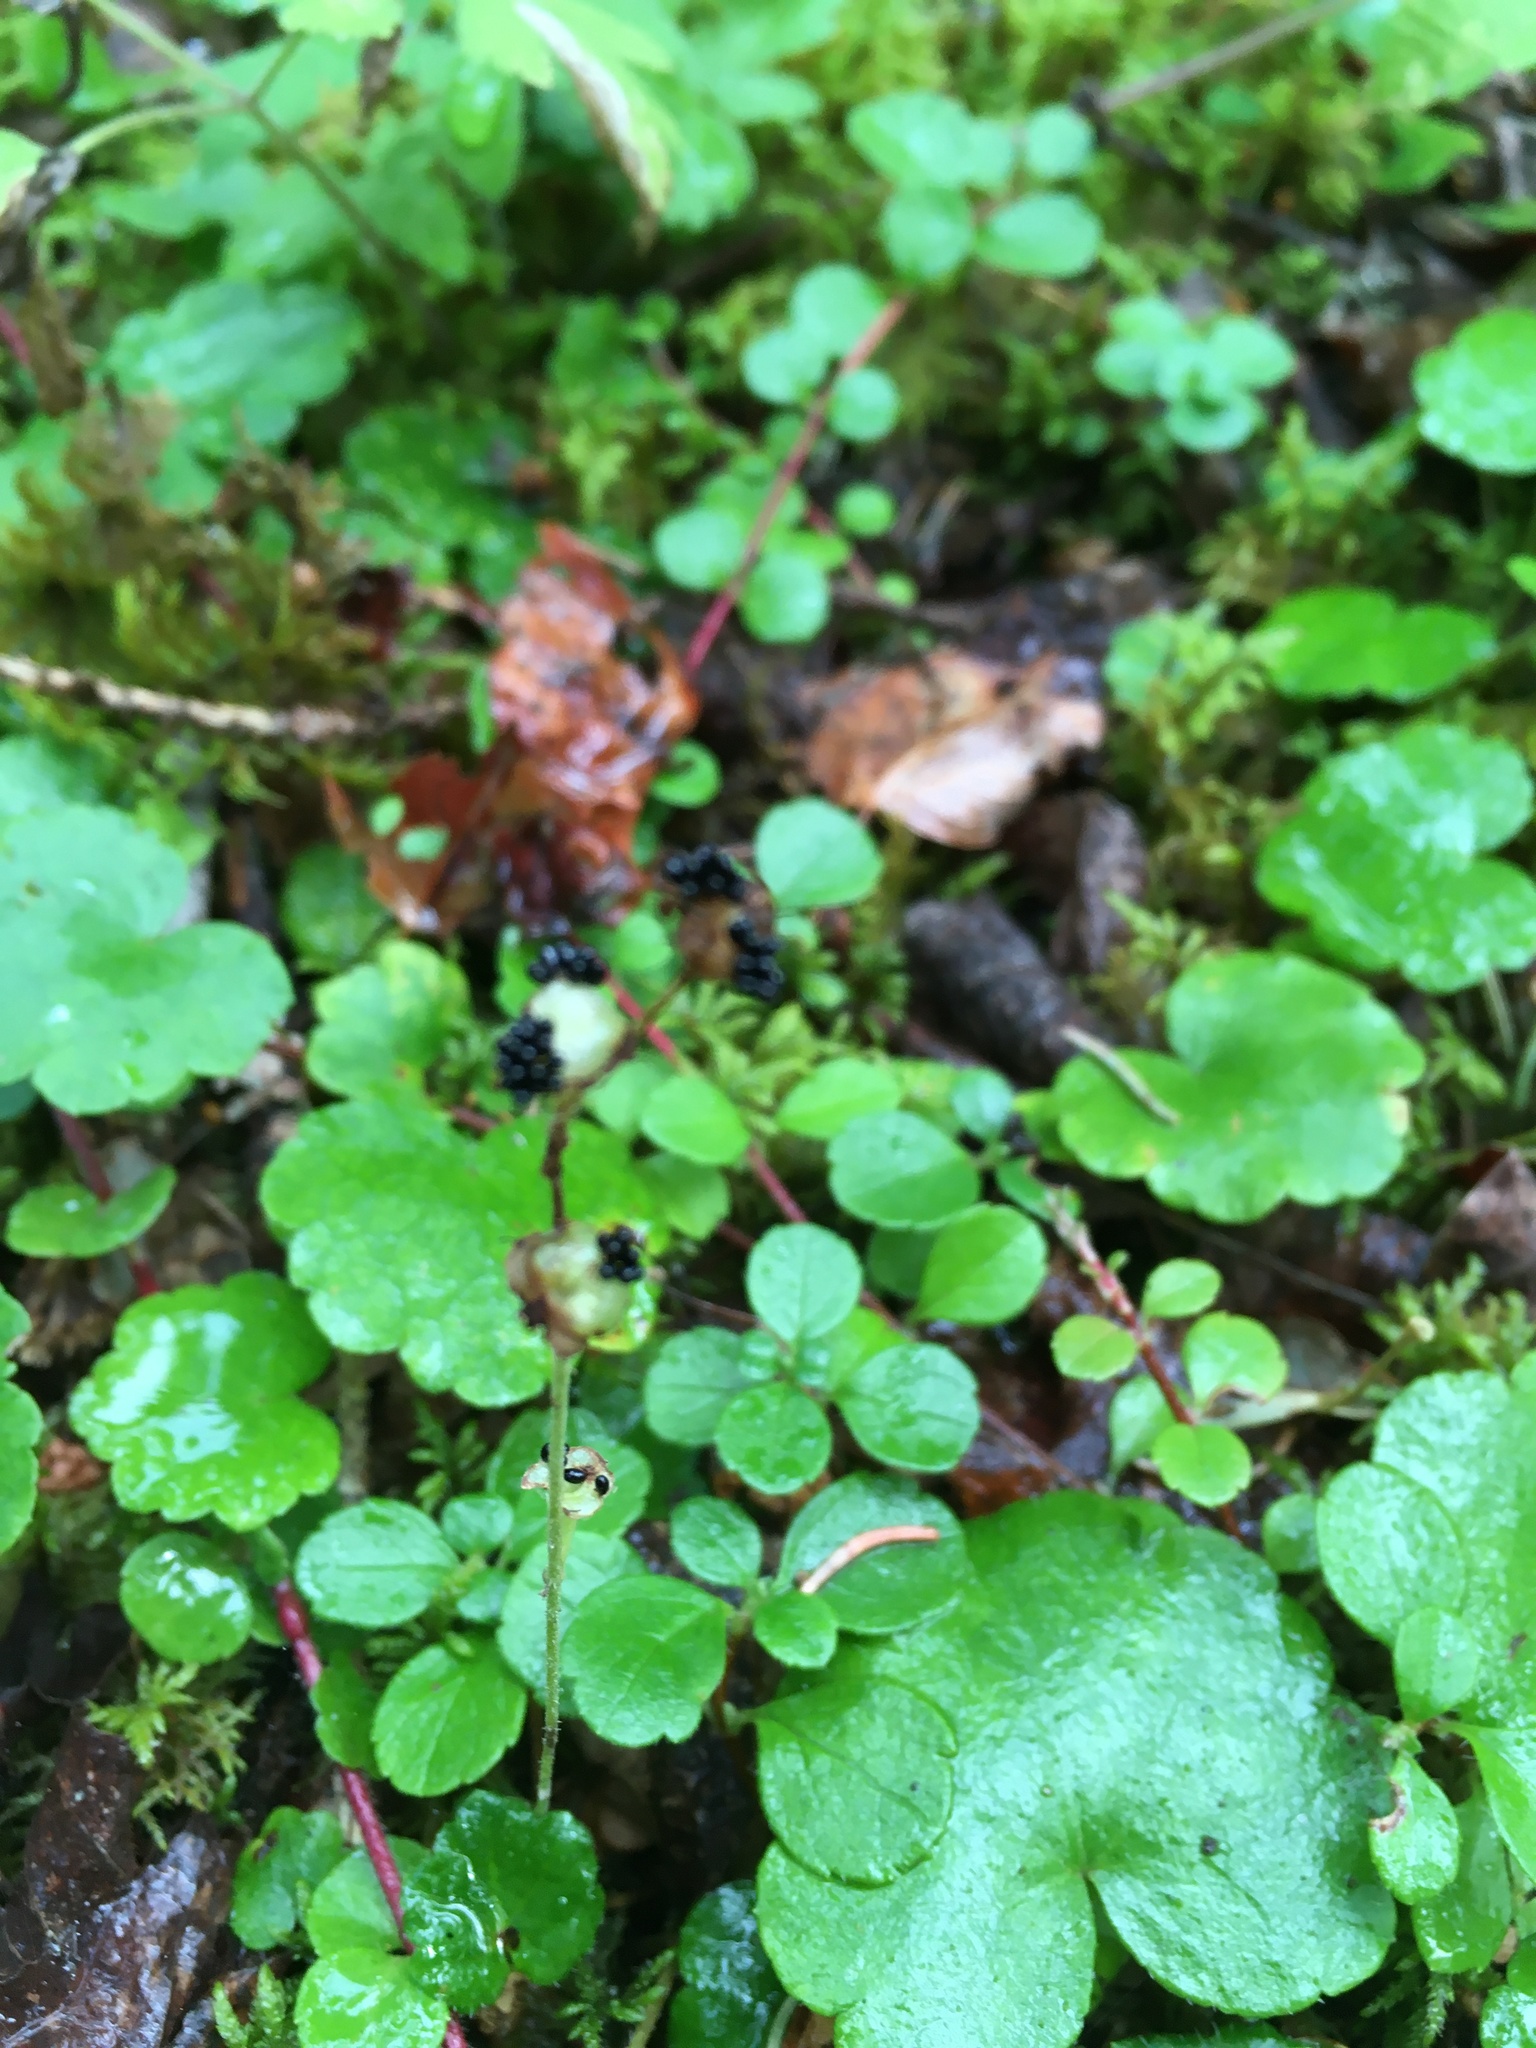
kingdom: Plantae
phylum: Tracheophyta
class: Magnoliopsida
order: Saxifragales
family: Saxifragaceae
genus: Mitella
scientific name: Mitella nuda
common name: Bare-stemmed bishop's-cap
